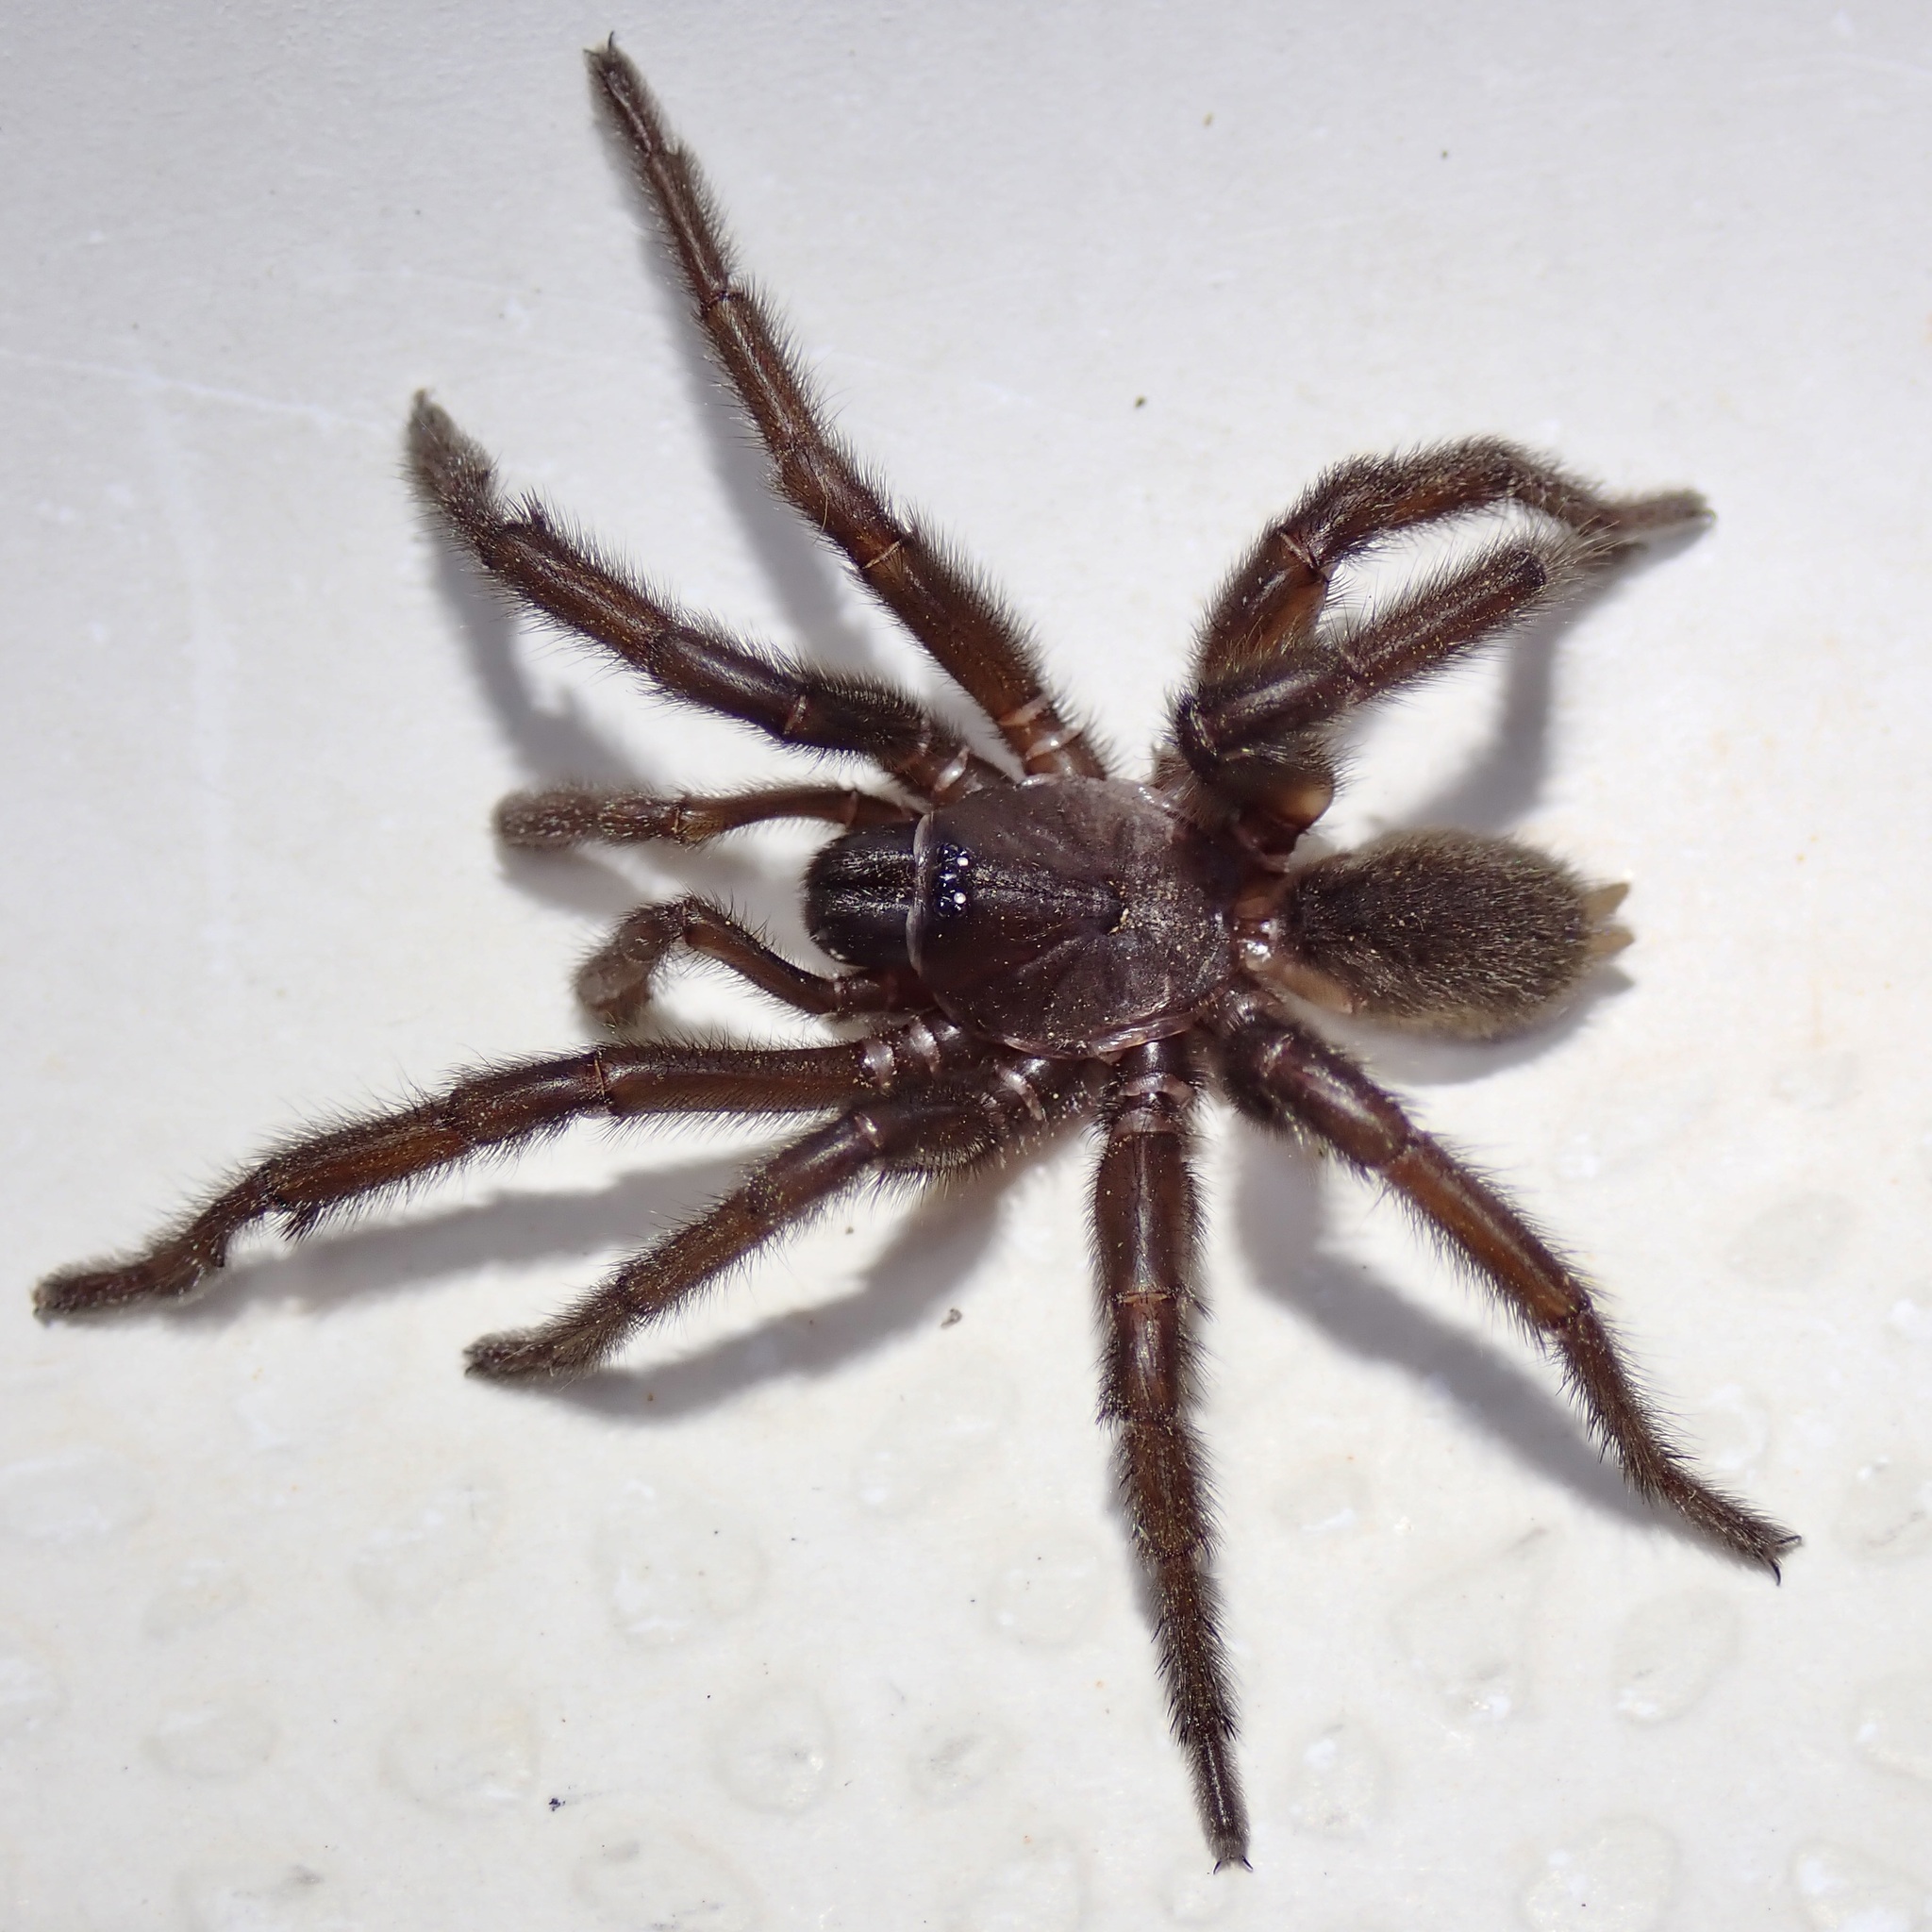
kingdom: Animalia
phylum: Arthropoda
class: Arachnida
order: Araneae
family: Euctenizidae
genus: Entychides
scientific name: Entychides arizonicus
